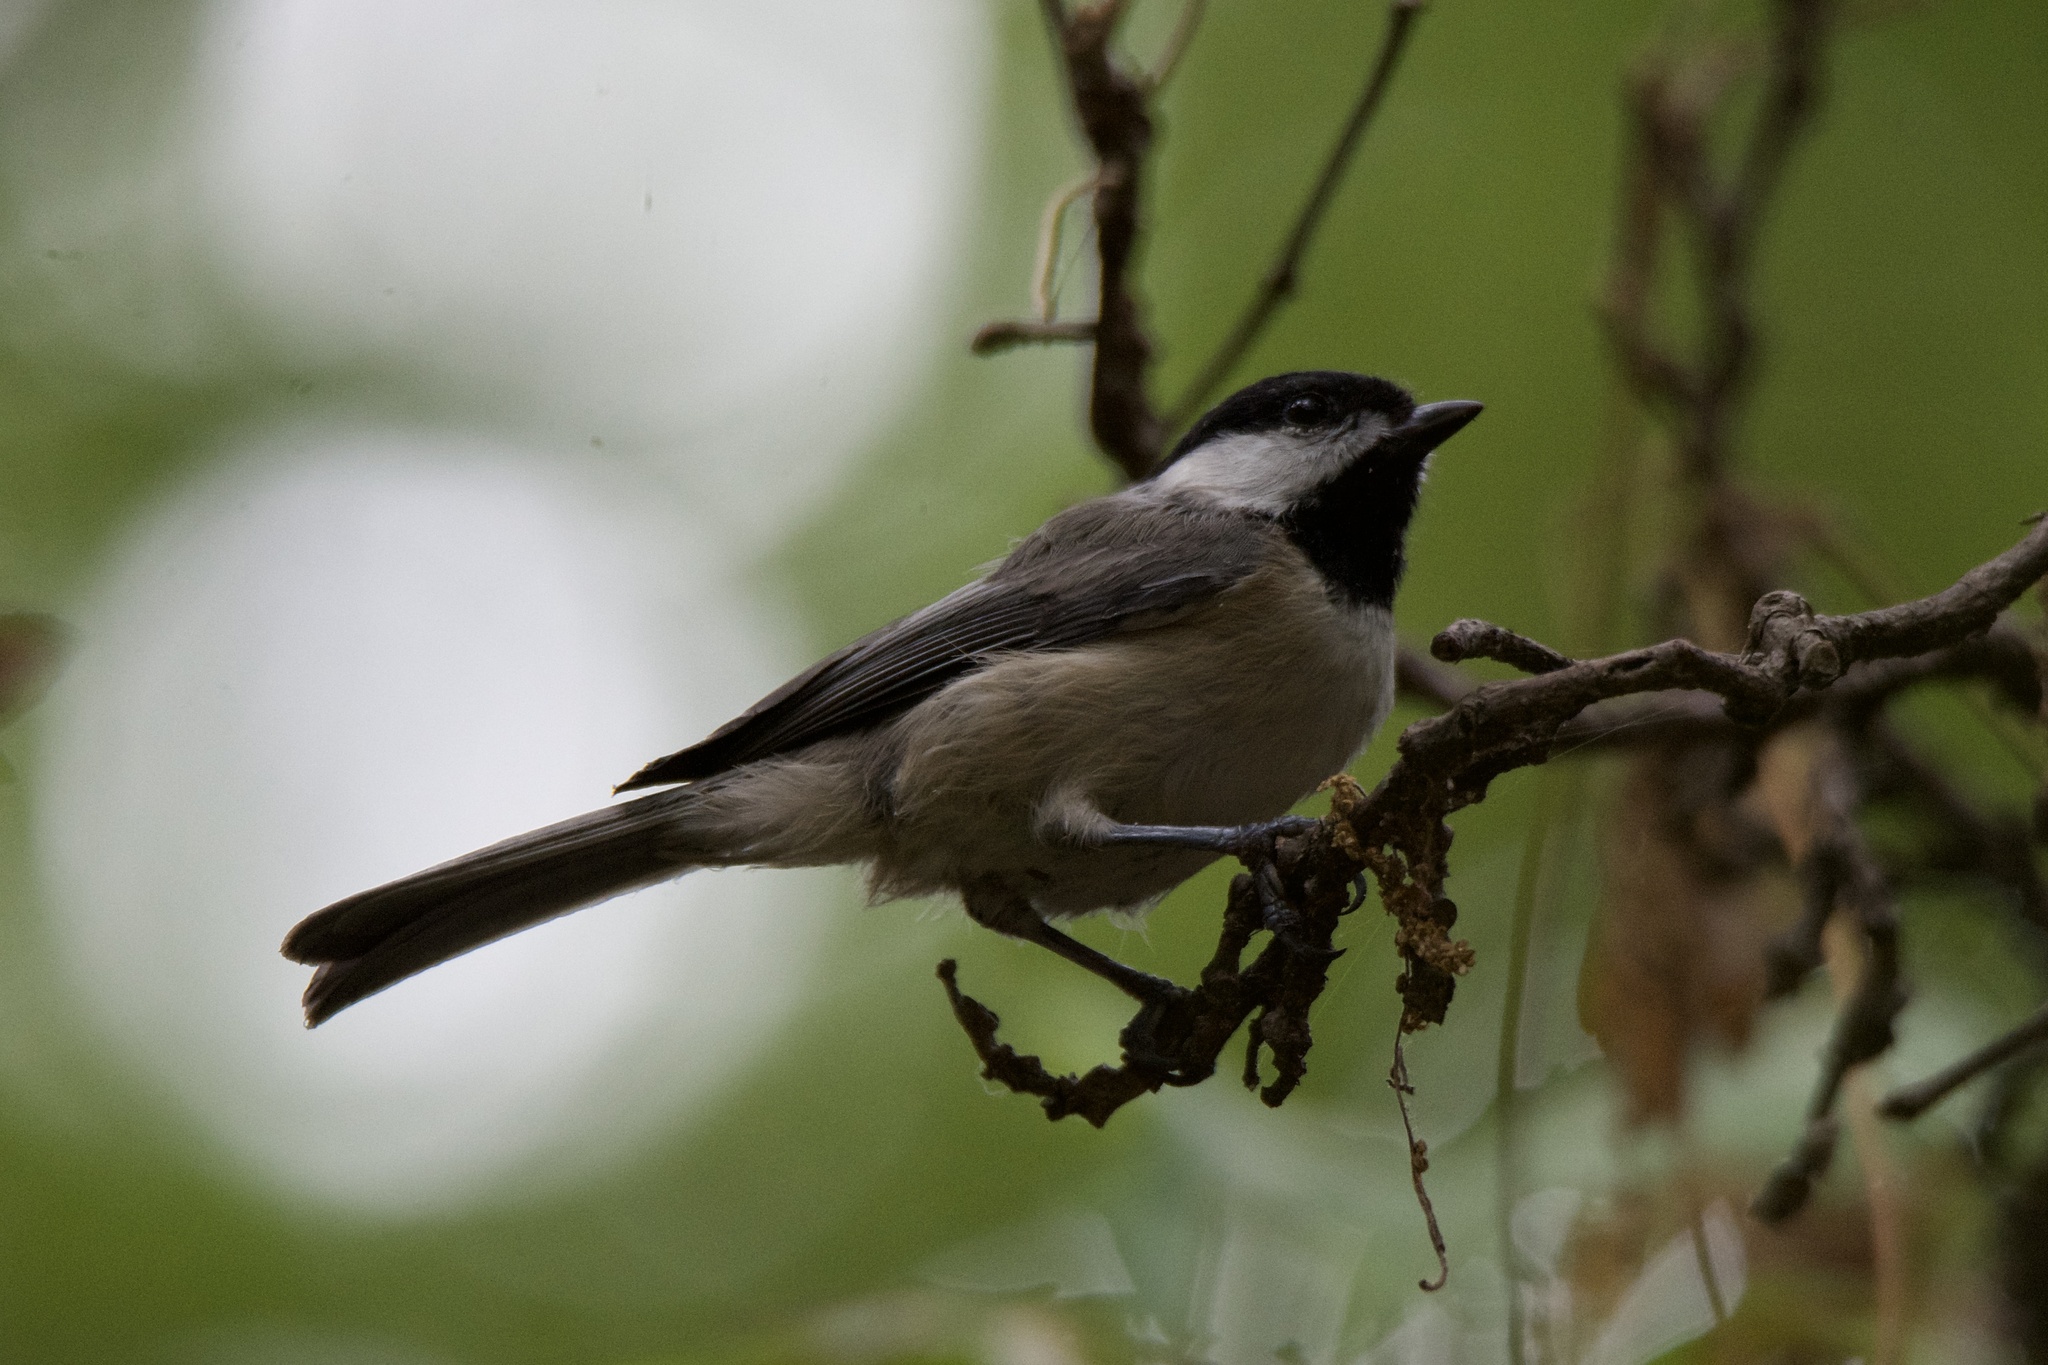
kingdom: Animalia
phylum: Chordata
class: Aves
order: Passeriformes
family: Paridae
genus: Poecile
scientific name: Poecile carolinensis
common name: Carolina chickadee
